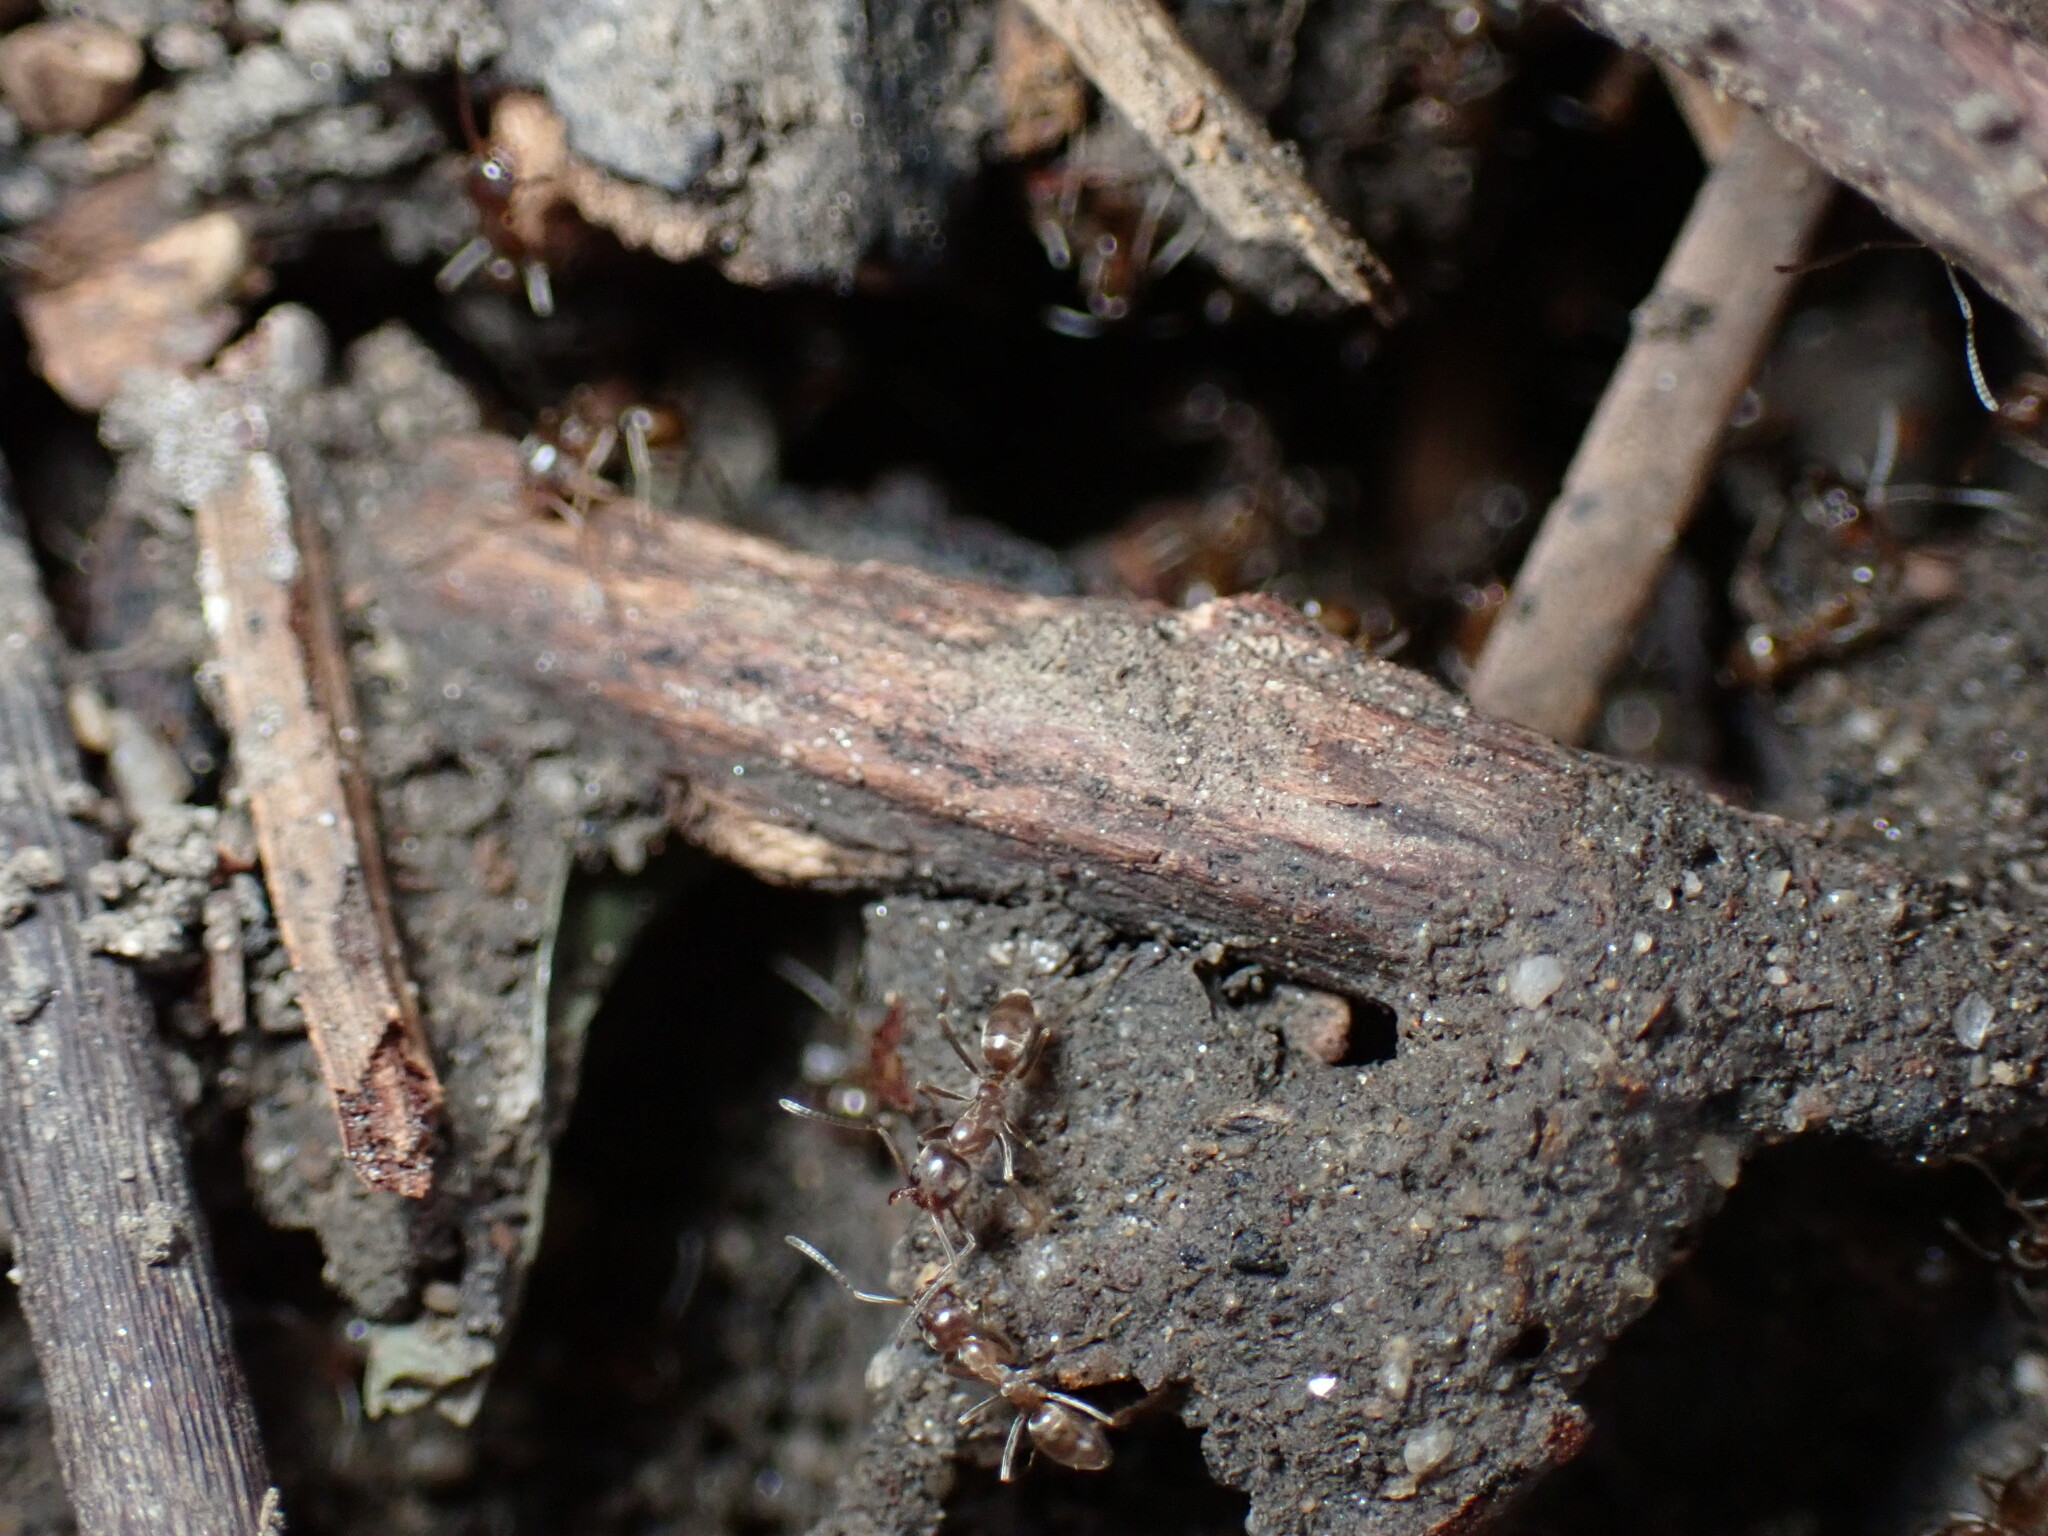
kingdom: Animalia
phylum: Arthropoda
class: Insecta
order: Hymenoptera
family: Formicidae
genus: Linepithema
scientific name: Linepithema humile
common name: Argentine ant
